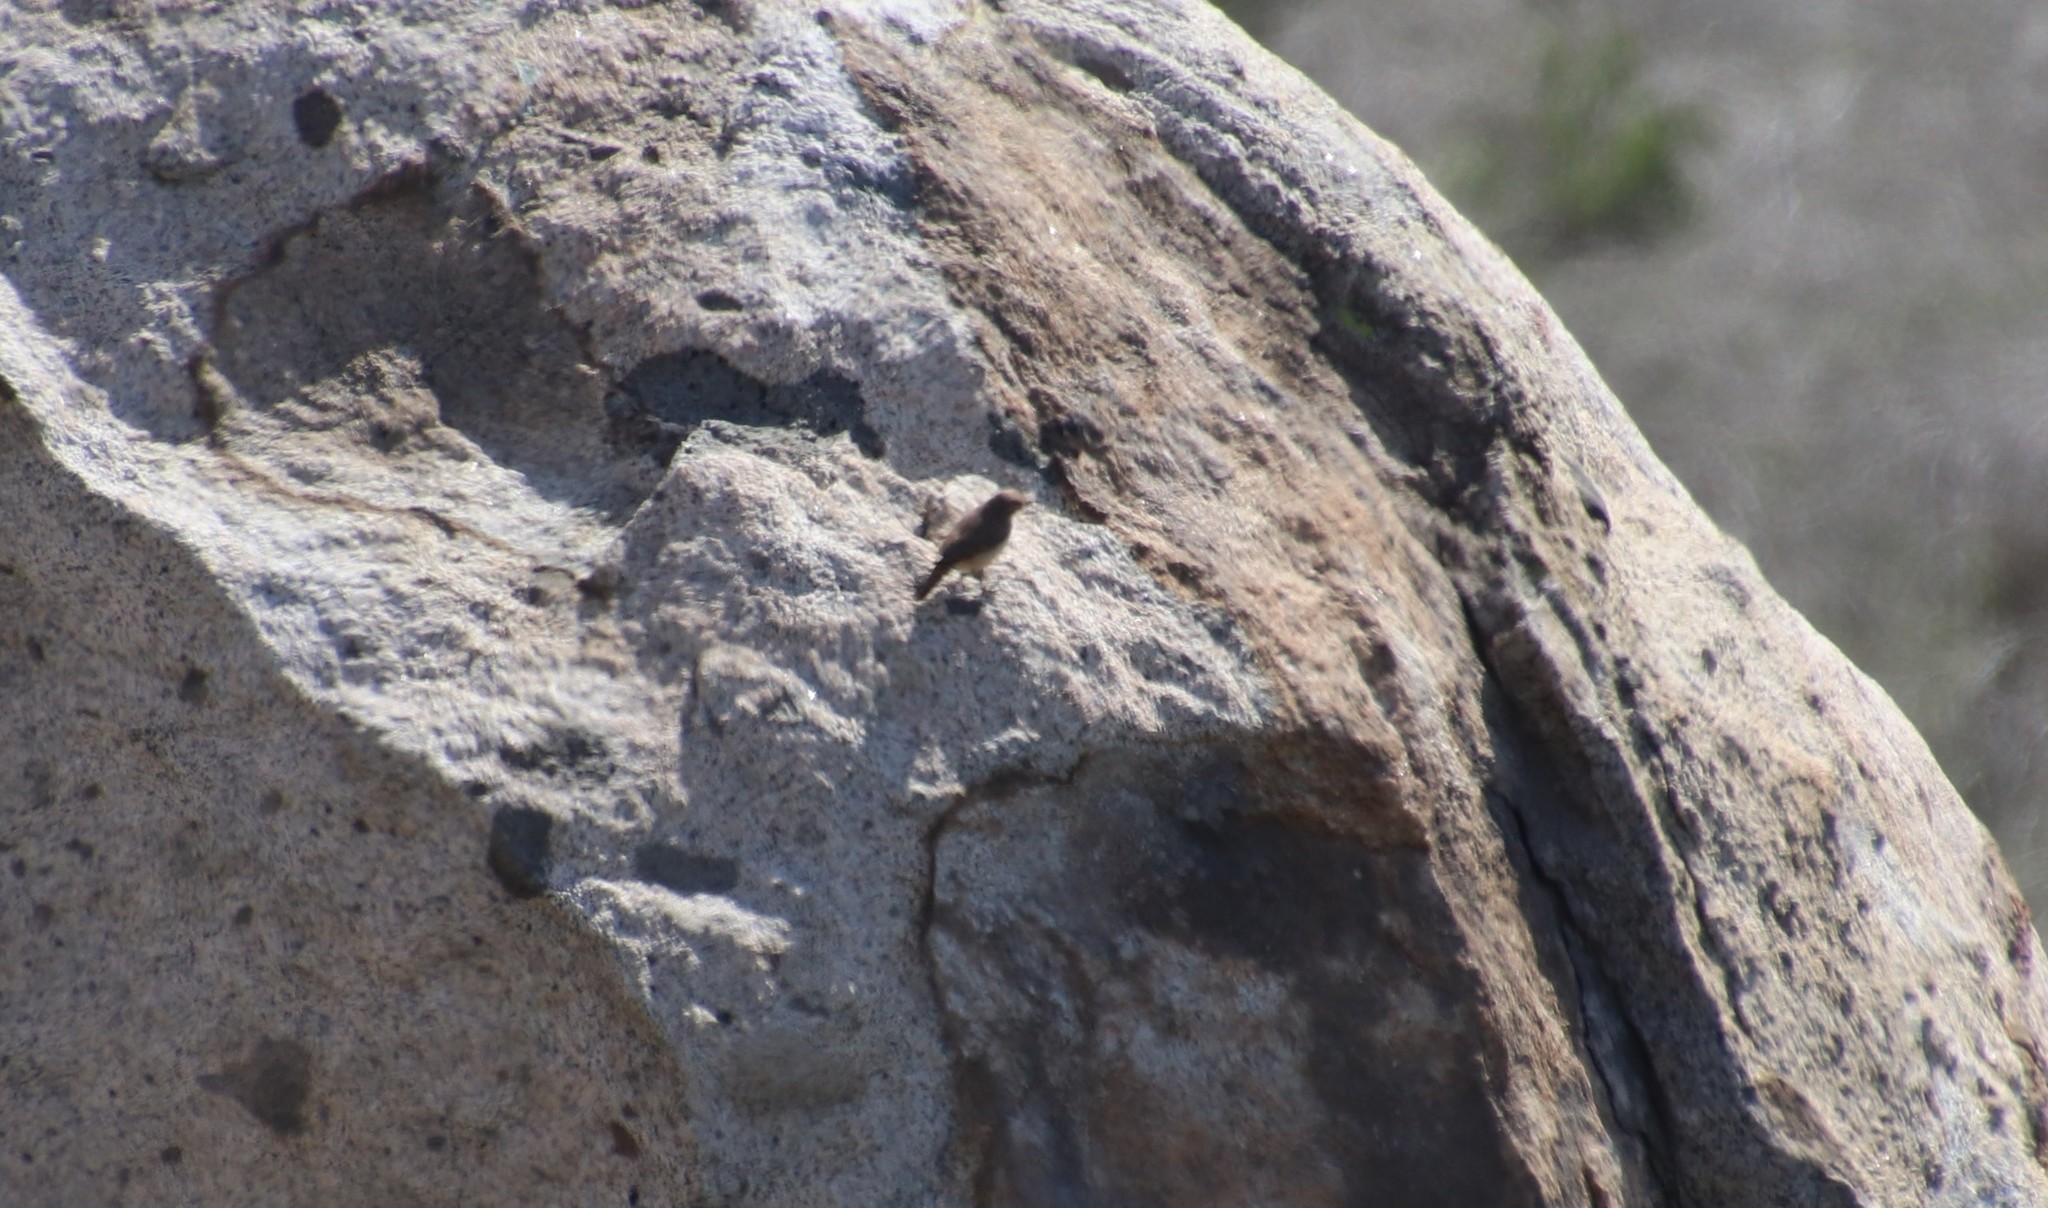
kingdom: Animalia
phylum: Chordata
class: Aves
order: Passeriformes
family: Troglodytidae
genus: Salpinctes
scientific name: Salpinctes obsoletus
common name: Rock wren
